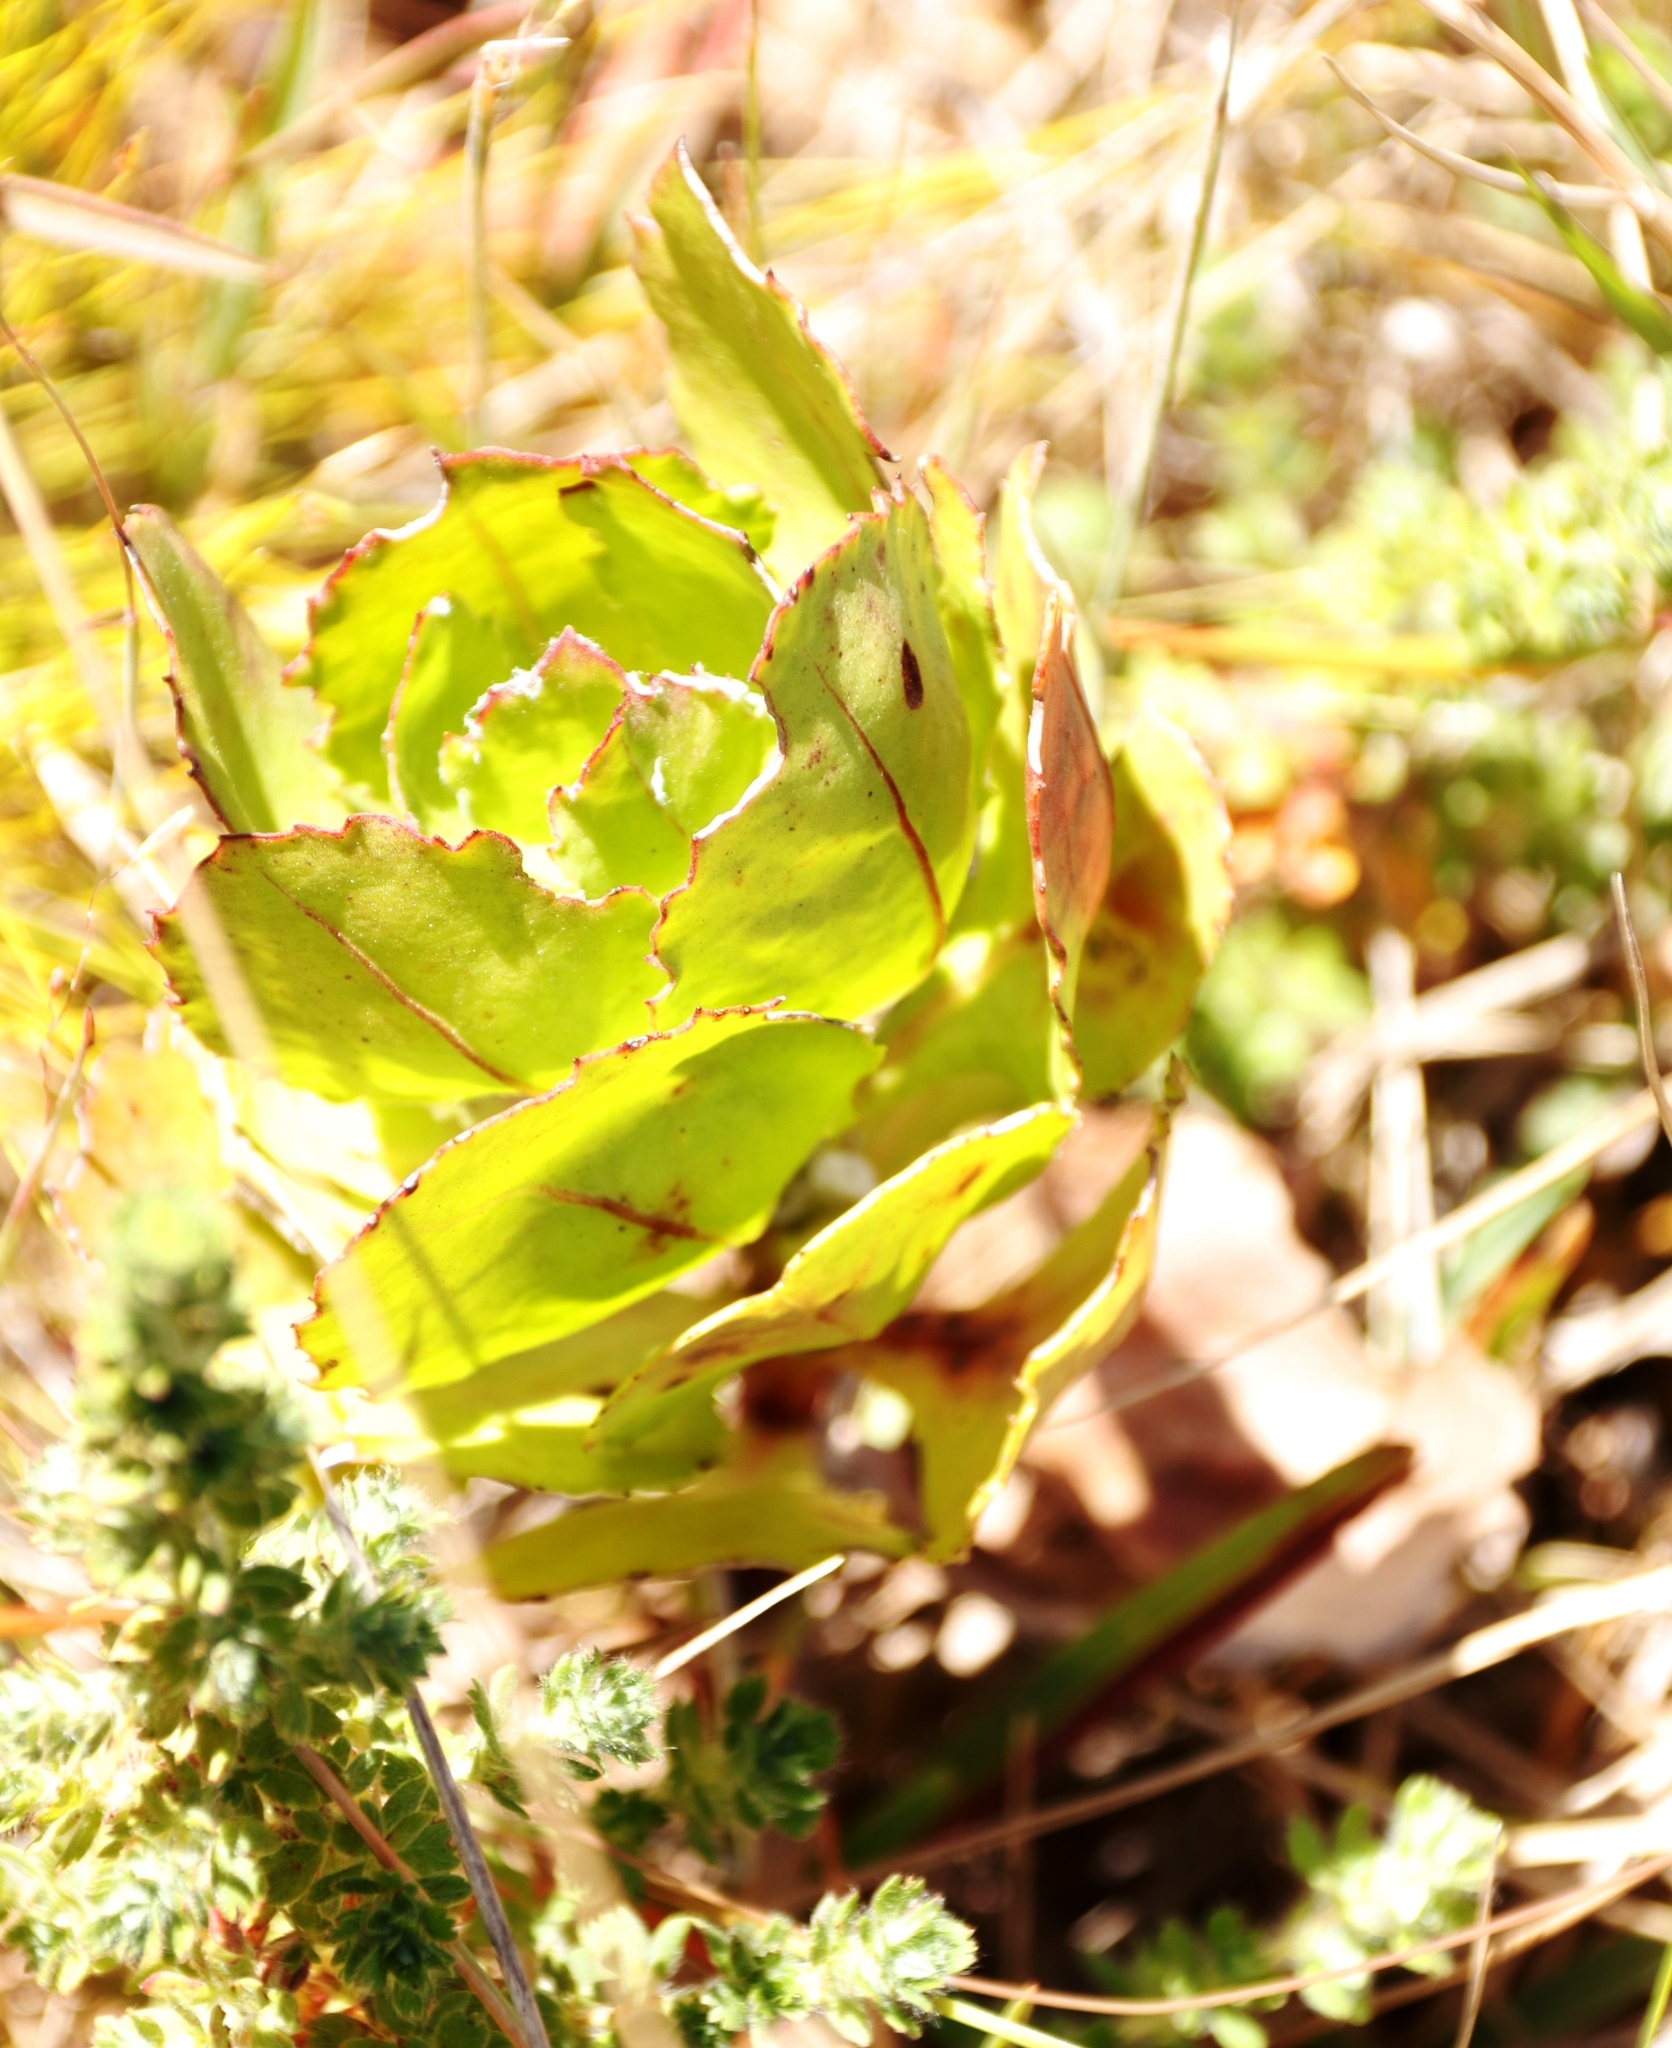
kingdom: Plantae
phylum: Tracheophyta
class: Magnoliopsida
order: Asterales
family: Asteraceae
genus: Osteospermum
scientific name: Osteospermum moniliferum
